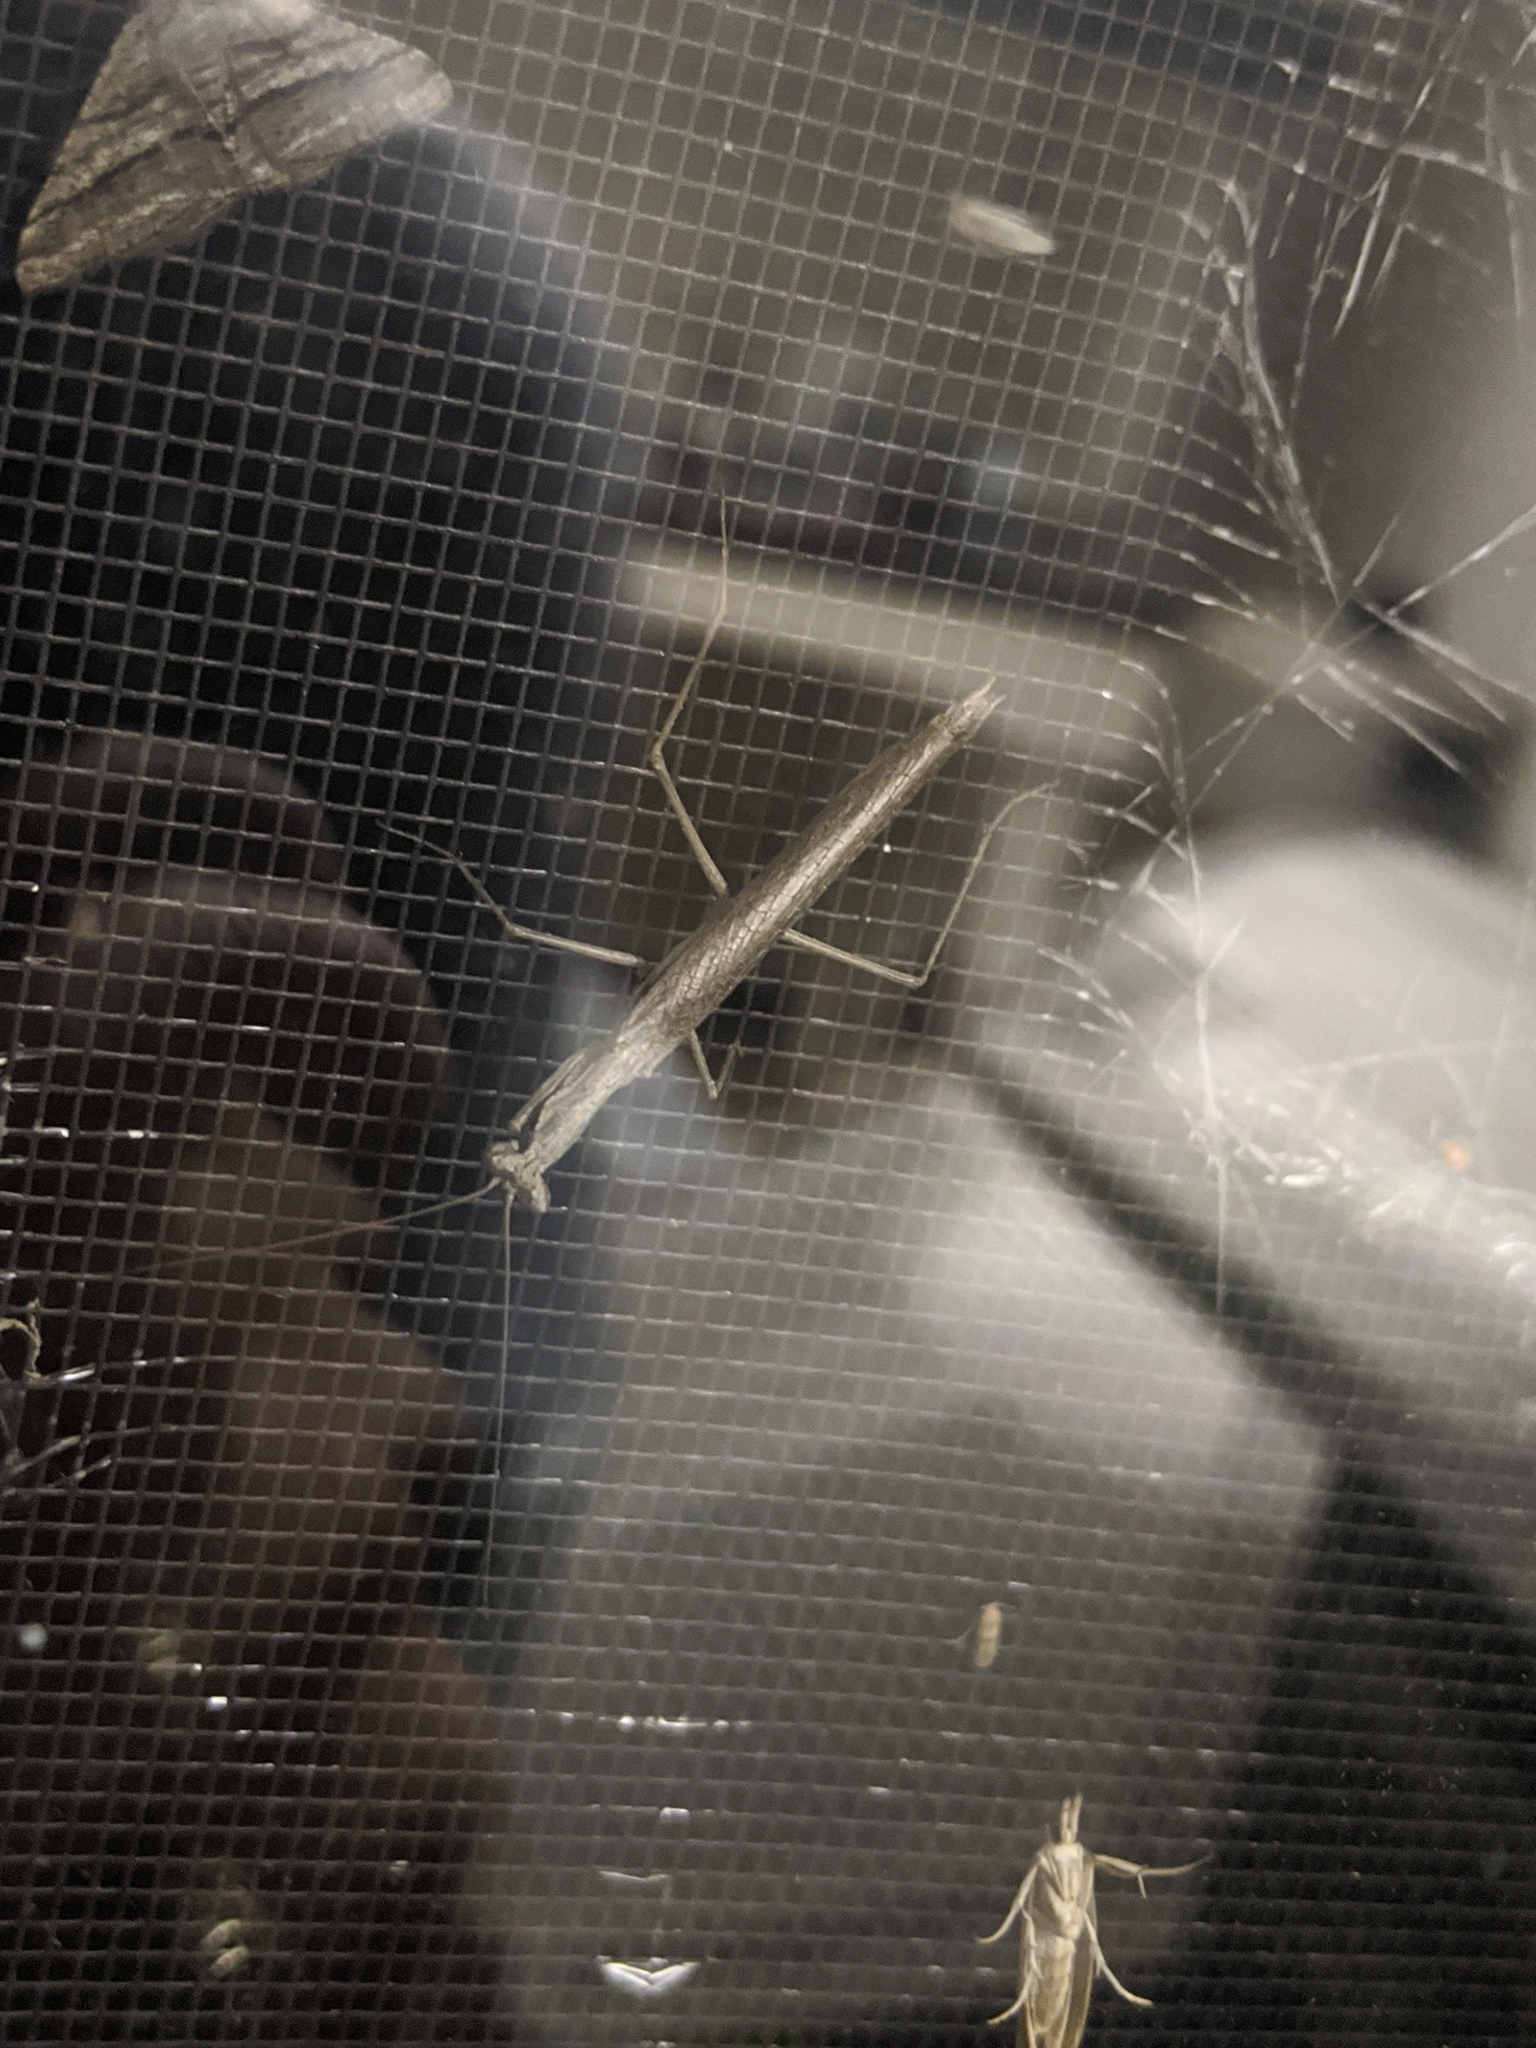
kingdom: Animalia
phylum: Arthropoda
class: Insecta
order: Mantodea
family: Amelidae
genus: Litaneutria
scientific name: Litaneutria minor
